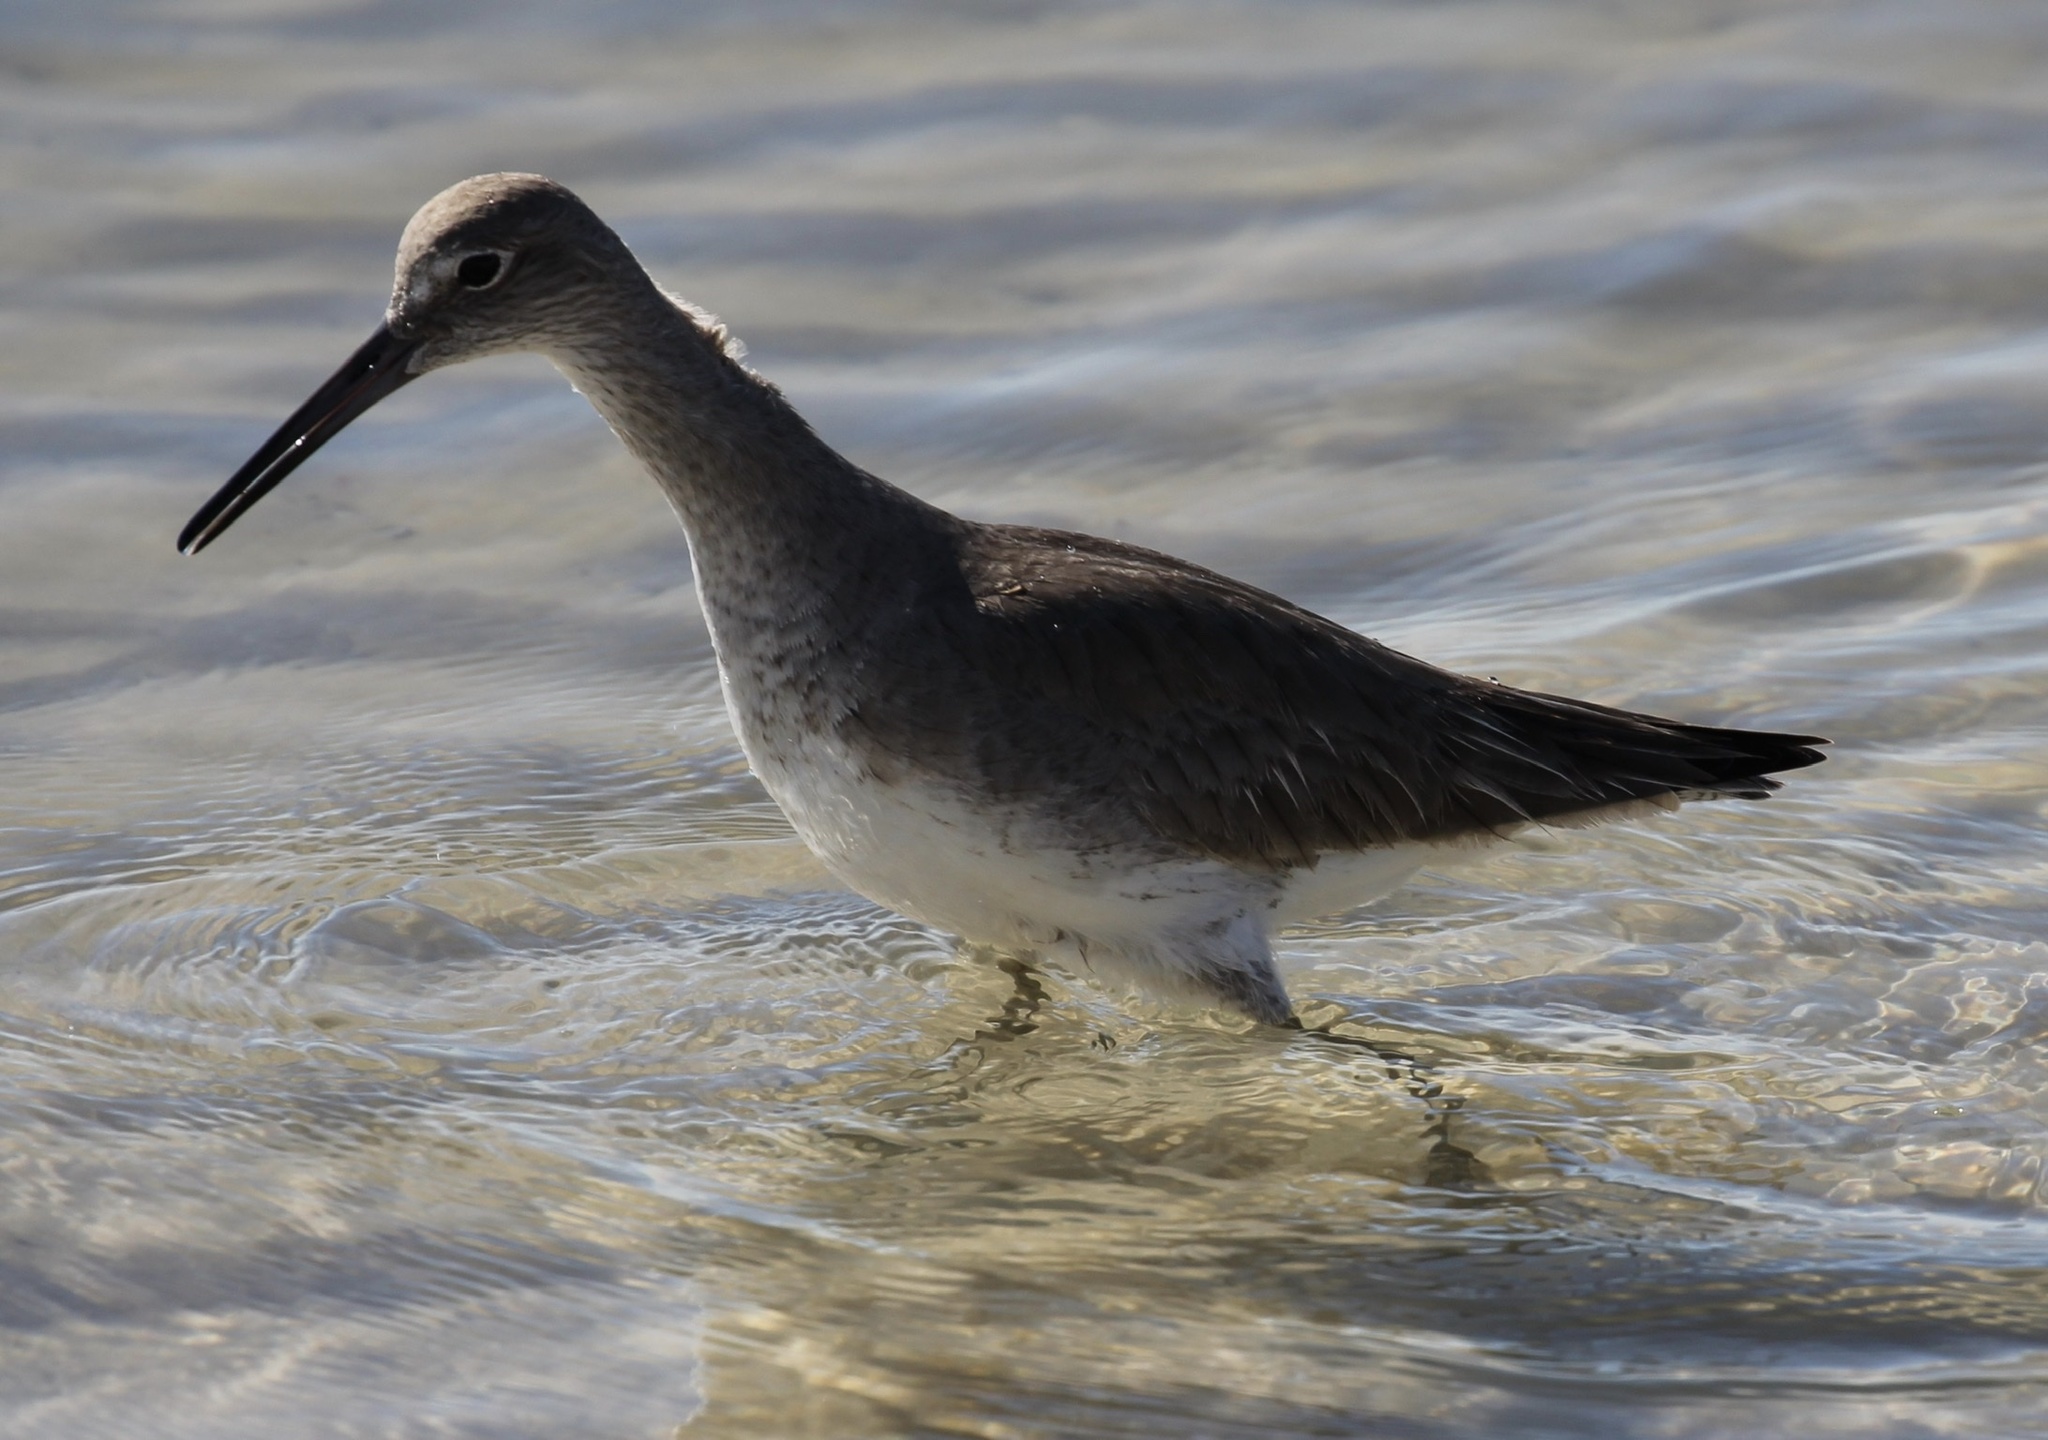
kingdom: Animalia
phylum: Chordata
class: Aves
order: Charadriiformes
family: Scolopacidae
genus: Tringa
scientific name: Tringa semipalmata
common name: Willet
